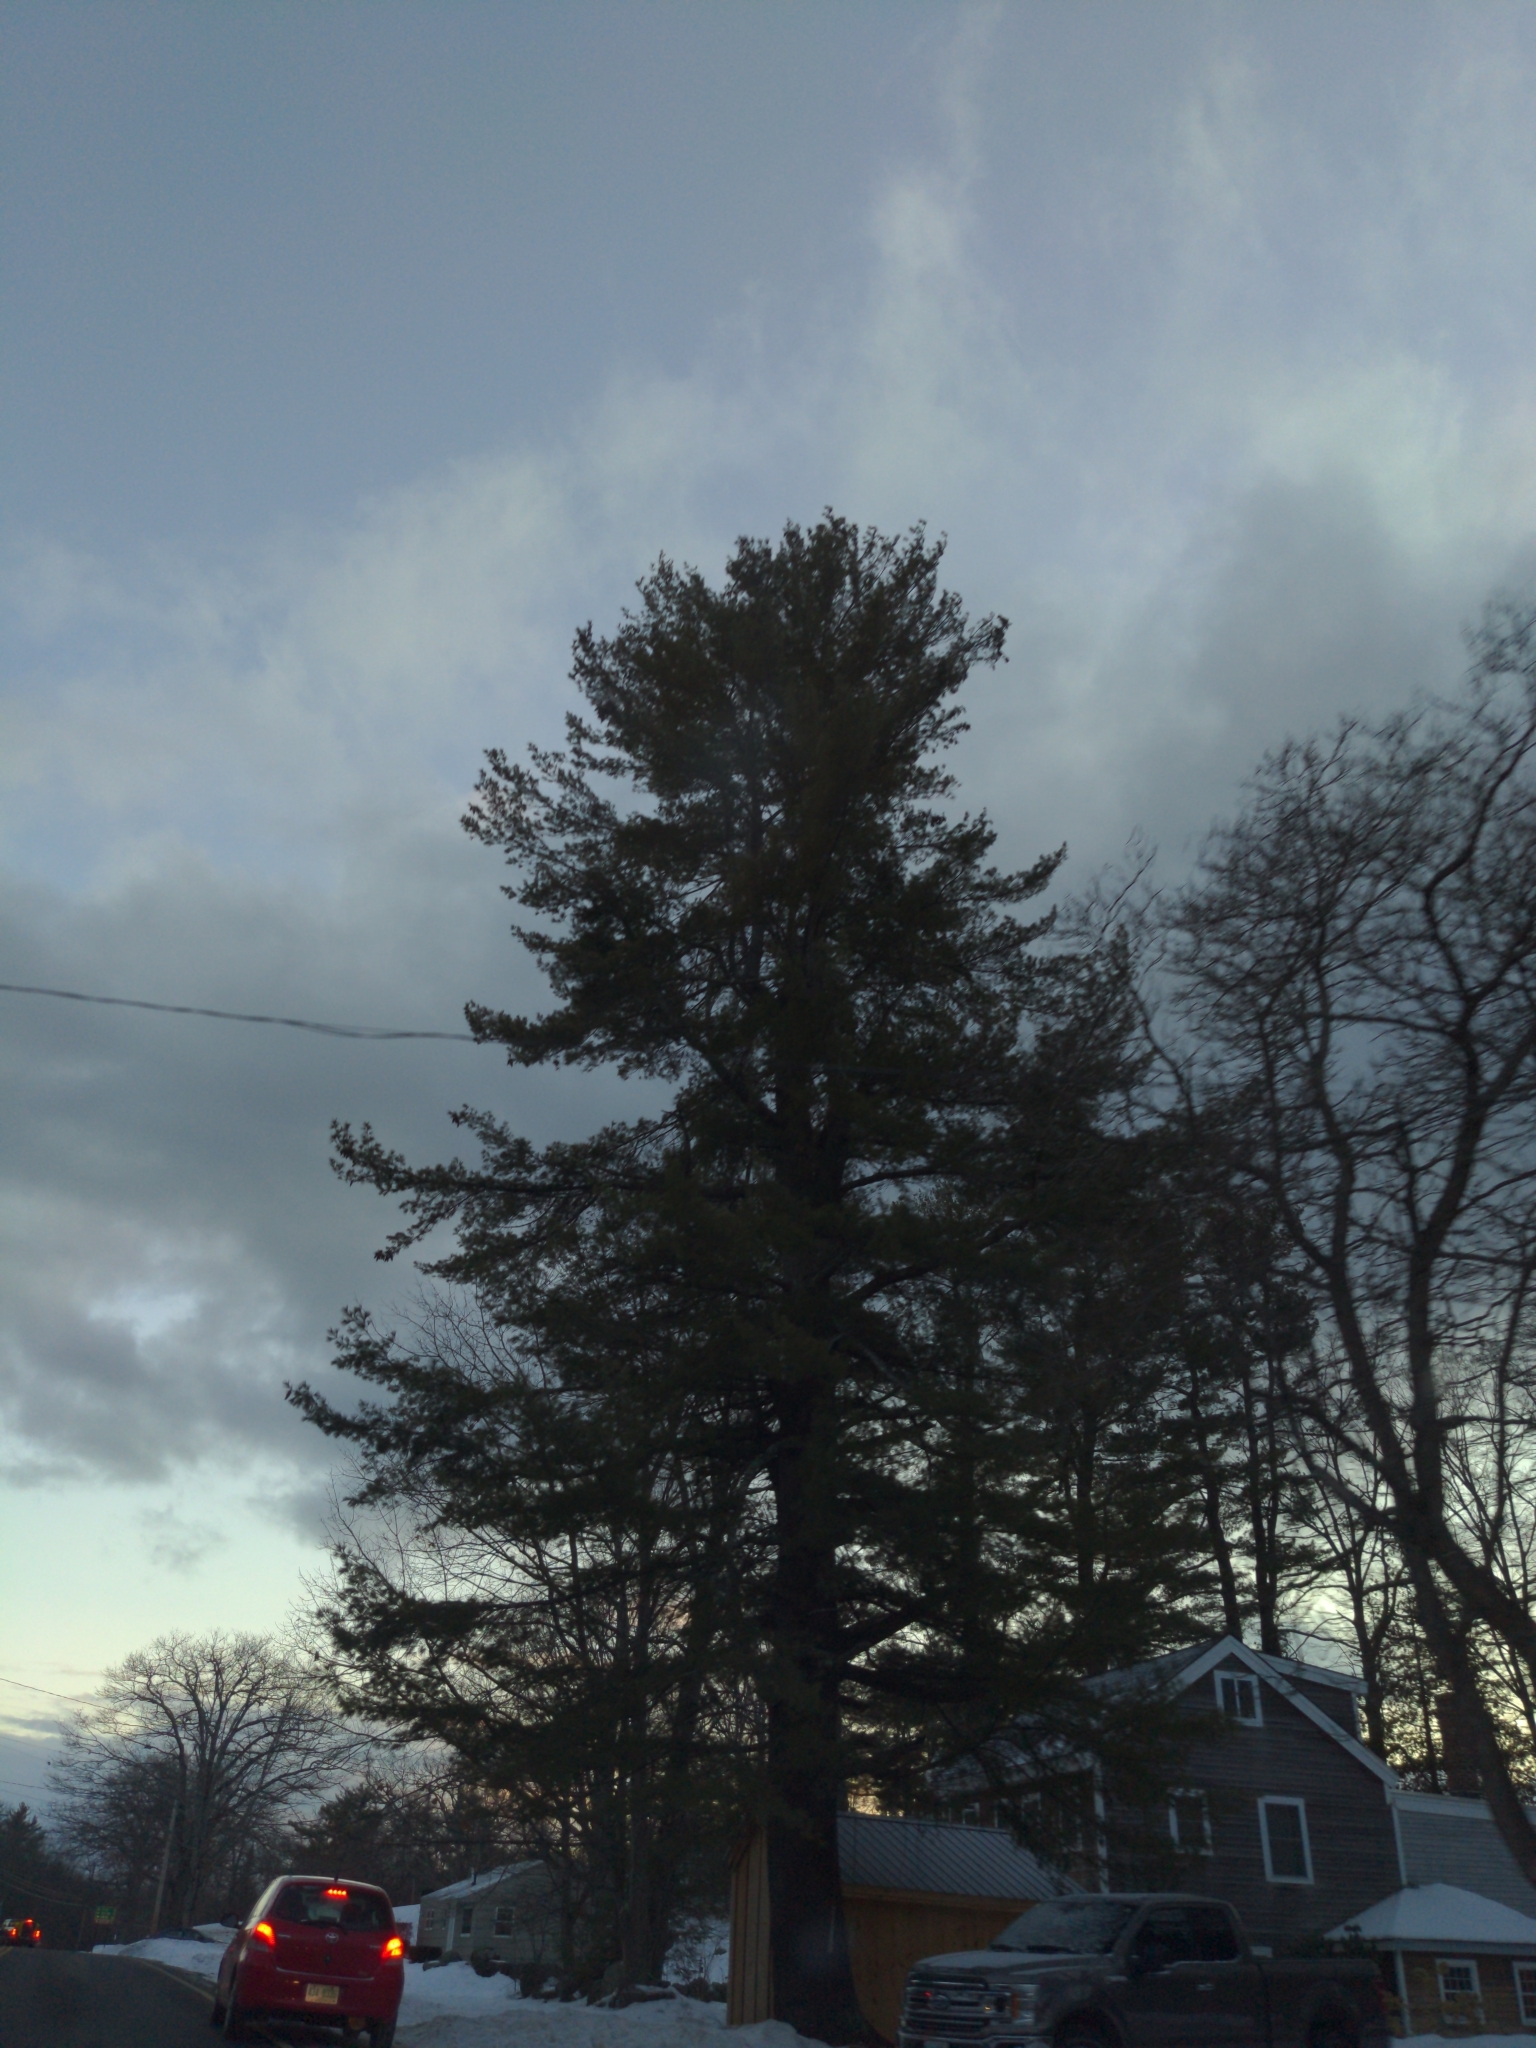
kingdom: Plantae
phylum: Tracheophyta
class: Pinopsida
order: Pinales
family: Pinaceae
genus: Pinus
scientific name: Pinus strobus
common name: Weymouth pine
